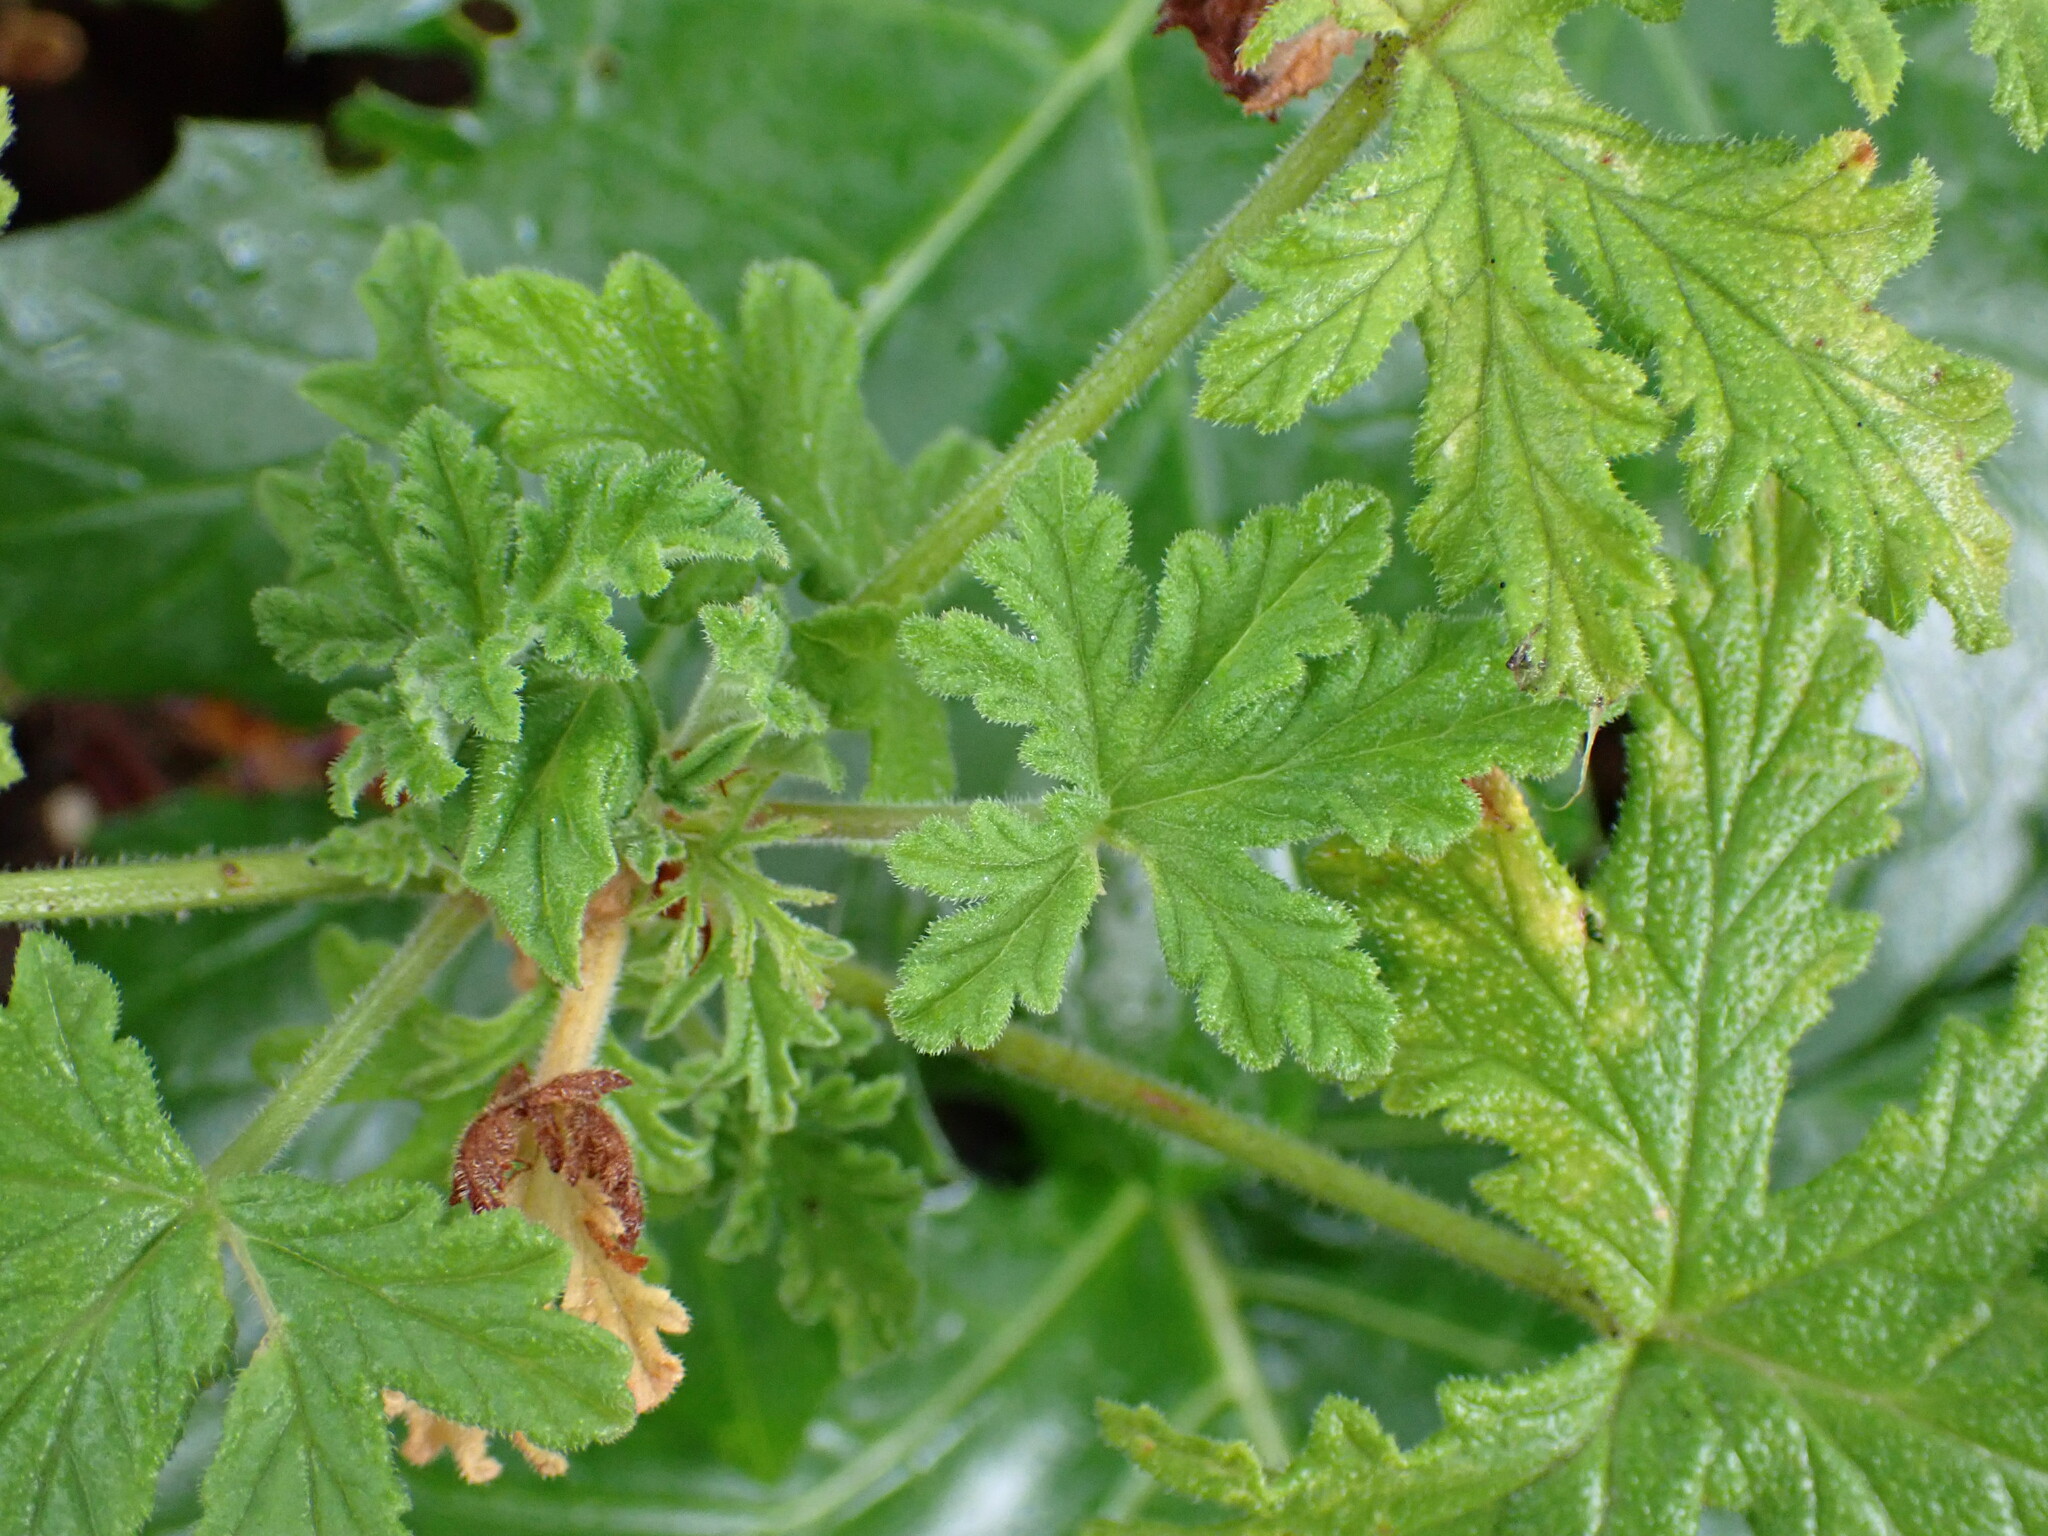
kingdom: Plantae
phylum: Tracheophyta
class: Magnoliopsida
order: Geraniales
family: Geraniaceae
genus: Pelargonium
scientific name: Pelargonium graveolens
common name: Rose-scent geranium
